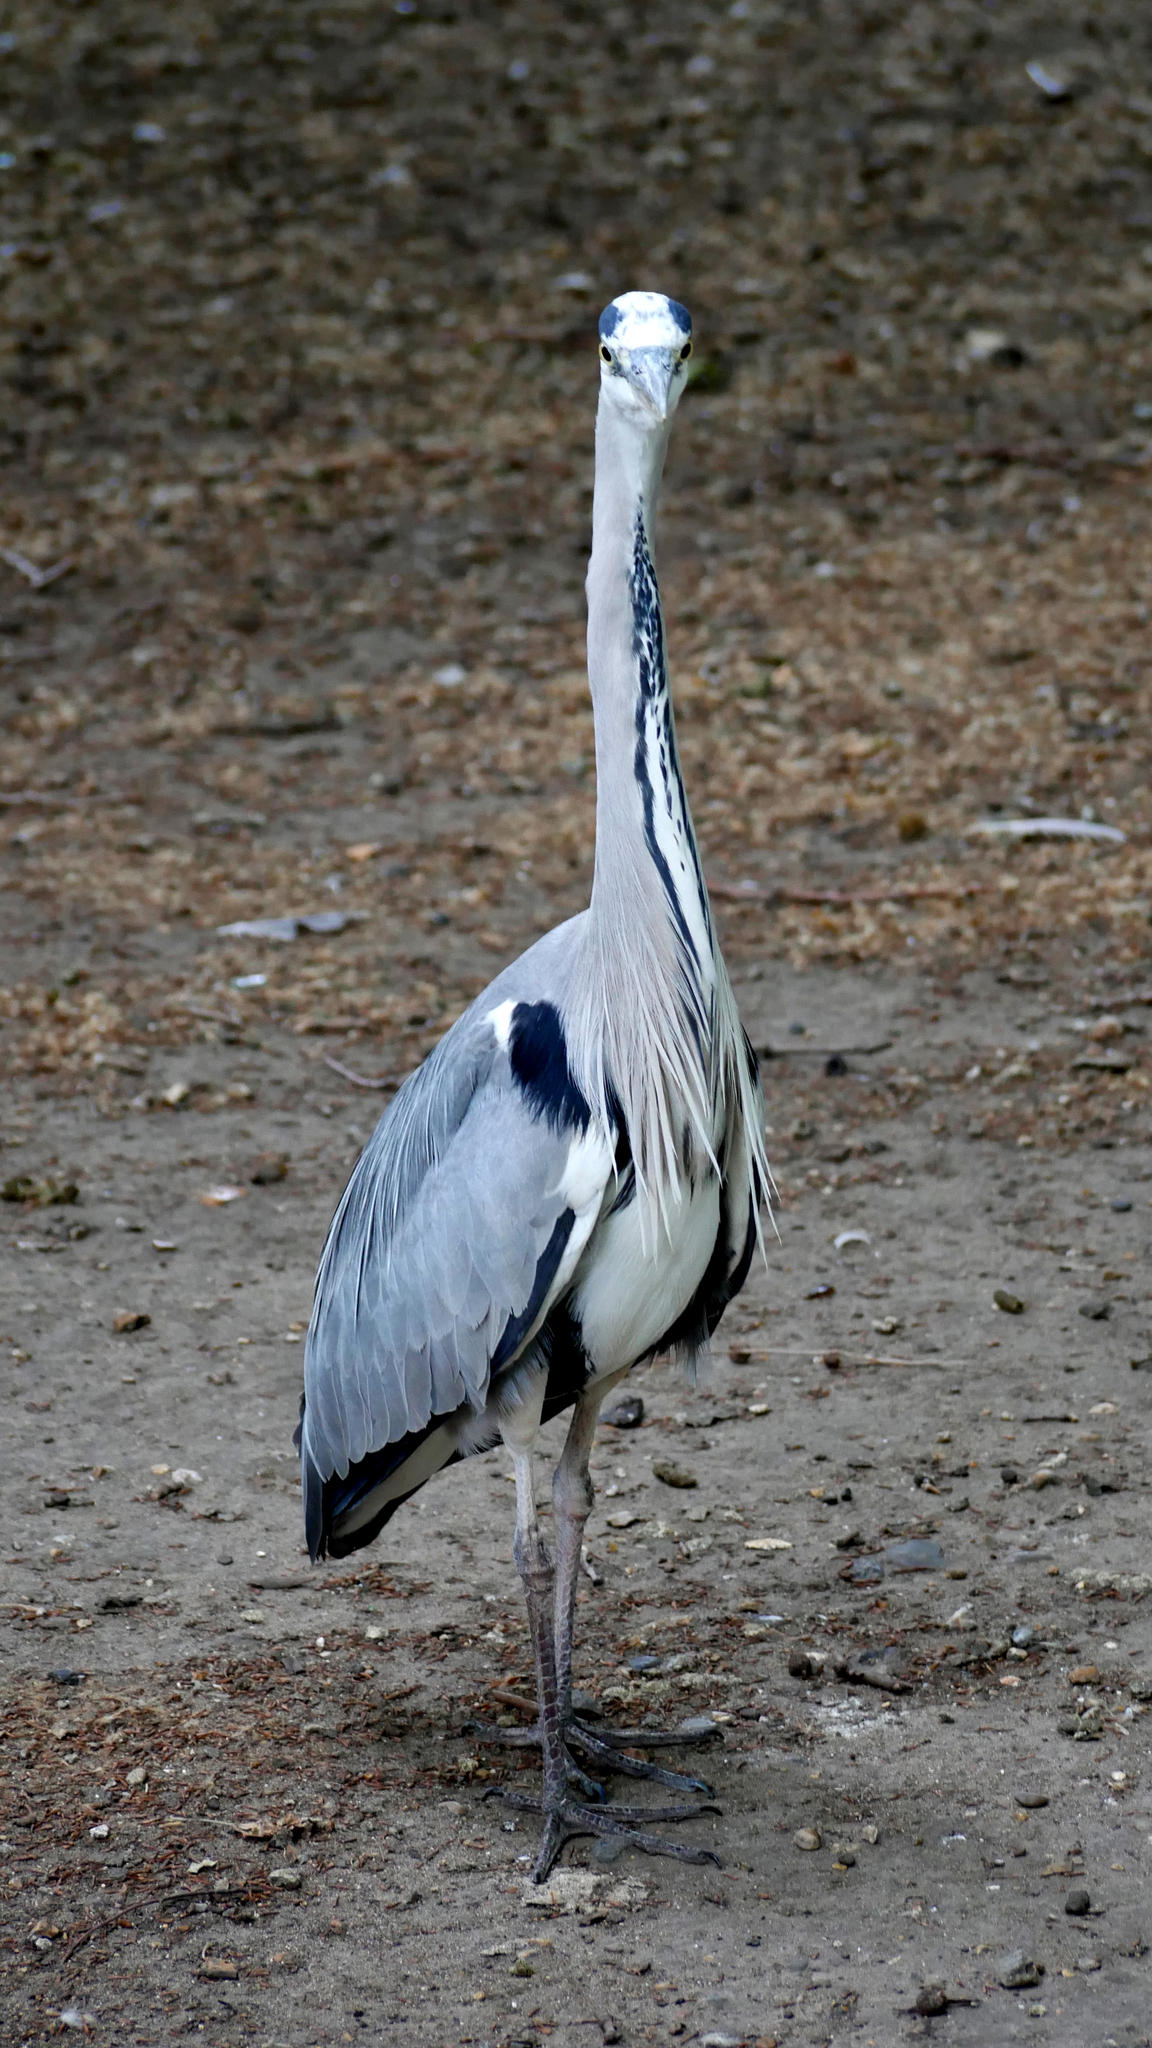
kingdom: Animalia
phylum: Chordata
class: Aves
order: Pelecaniformes
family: Ardeidae
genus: Ardea
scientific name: Ardea cinerea
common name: Grey heron
